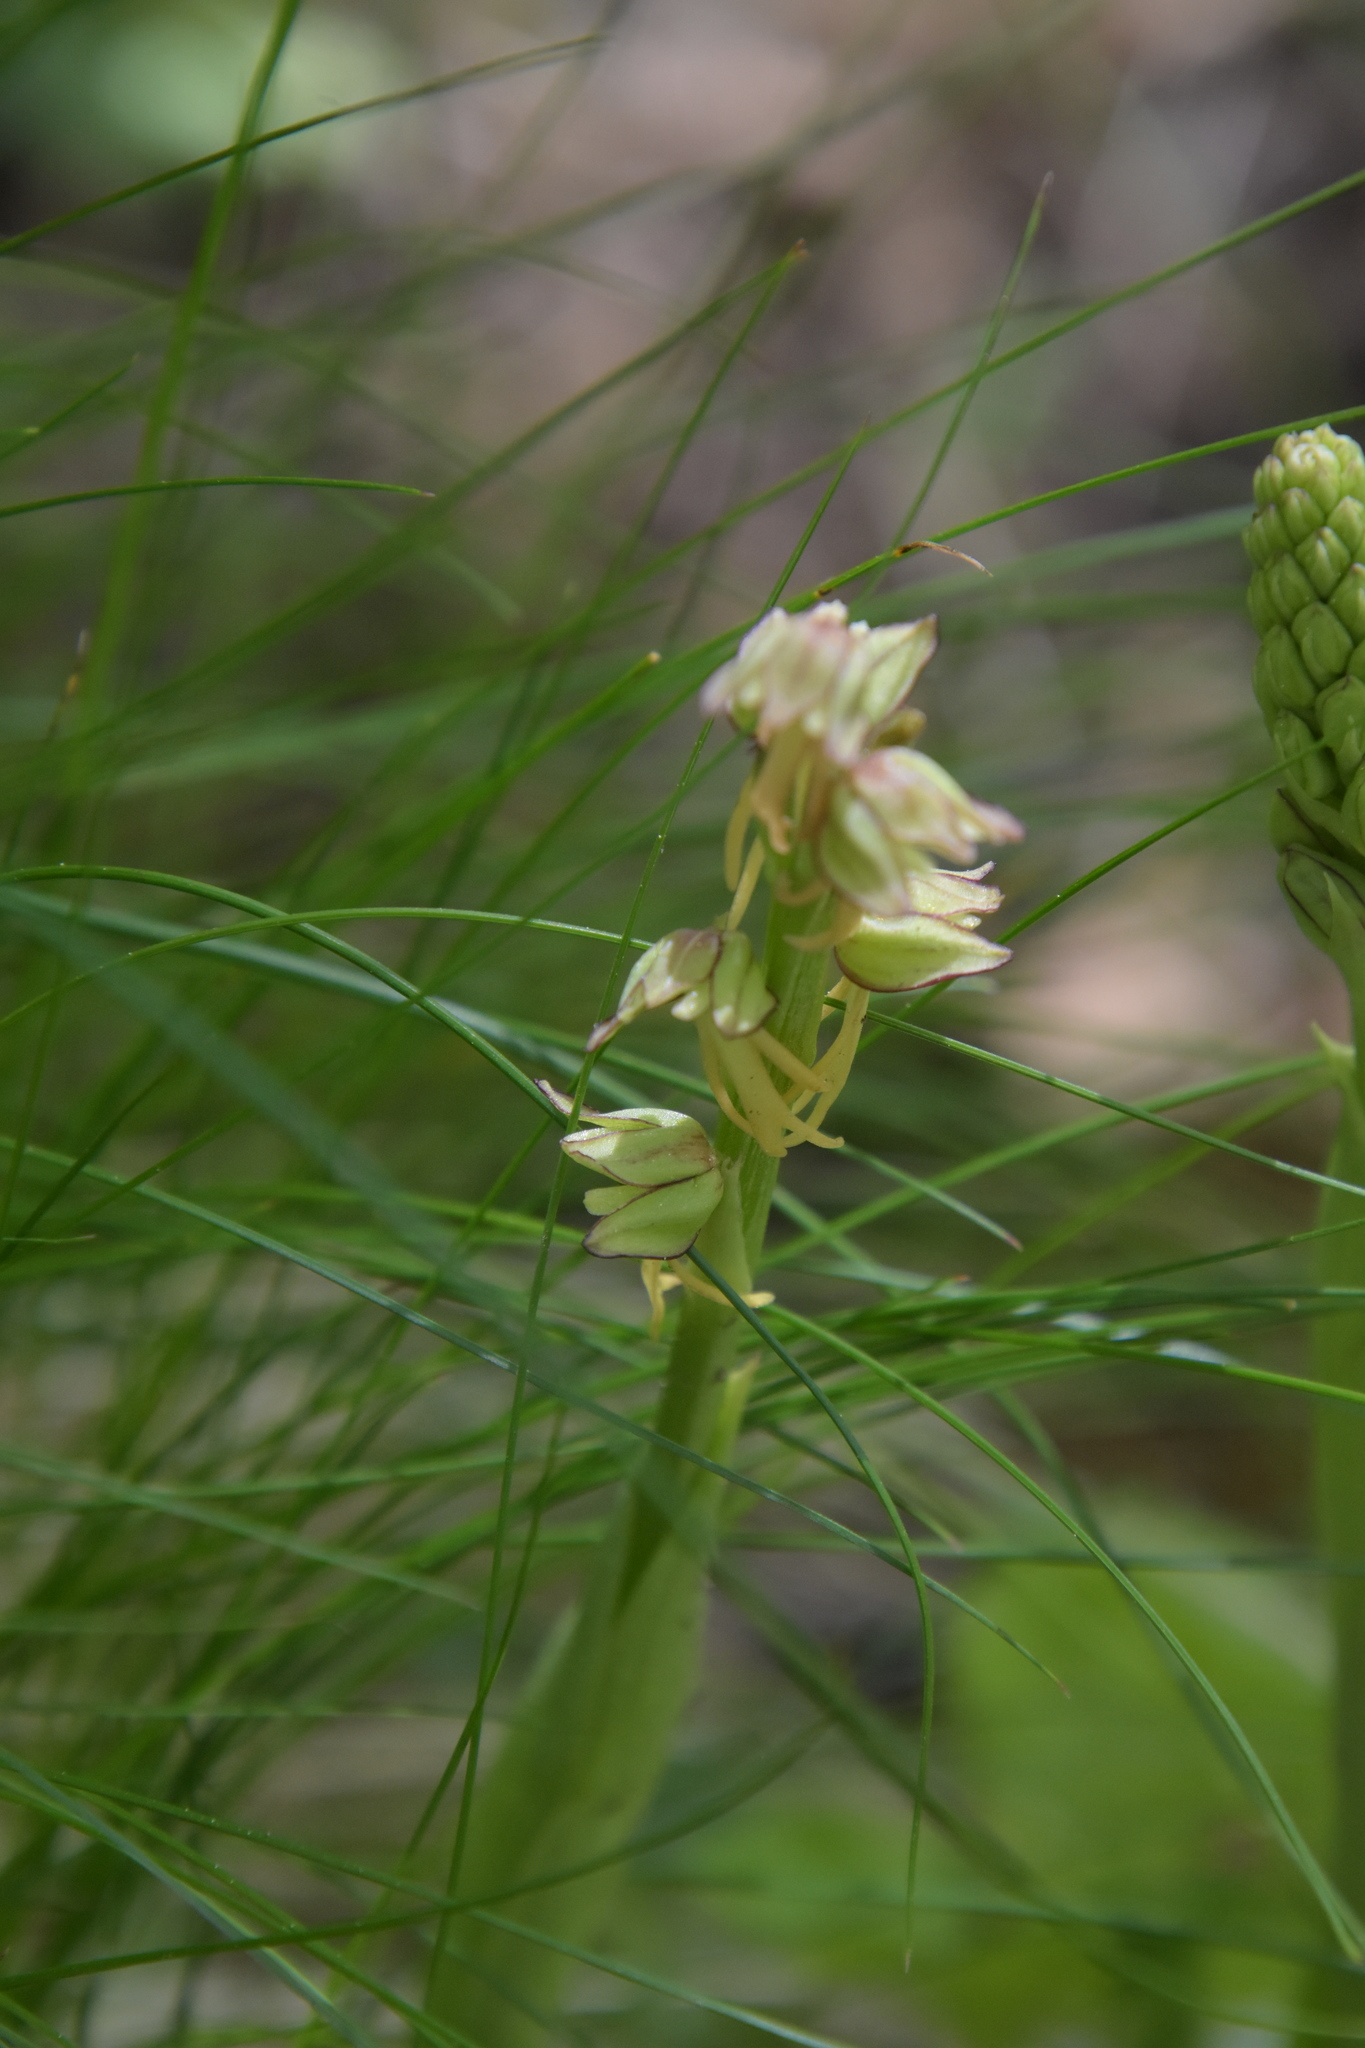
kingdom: Plantae
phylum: Tracheophyta
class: Liliopsida
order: Asparagales
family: Orchidaceae
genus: Orchis
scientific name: Orchis anthropophora
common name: Man orchid
